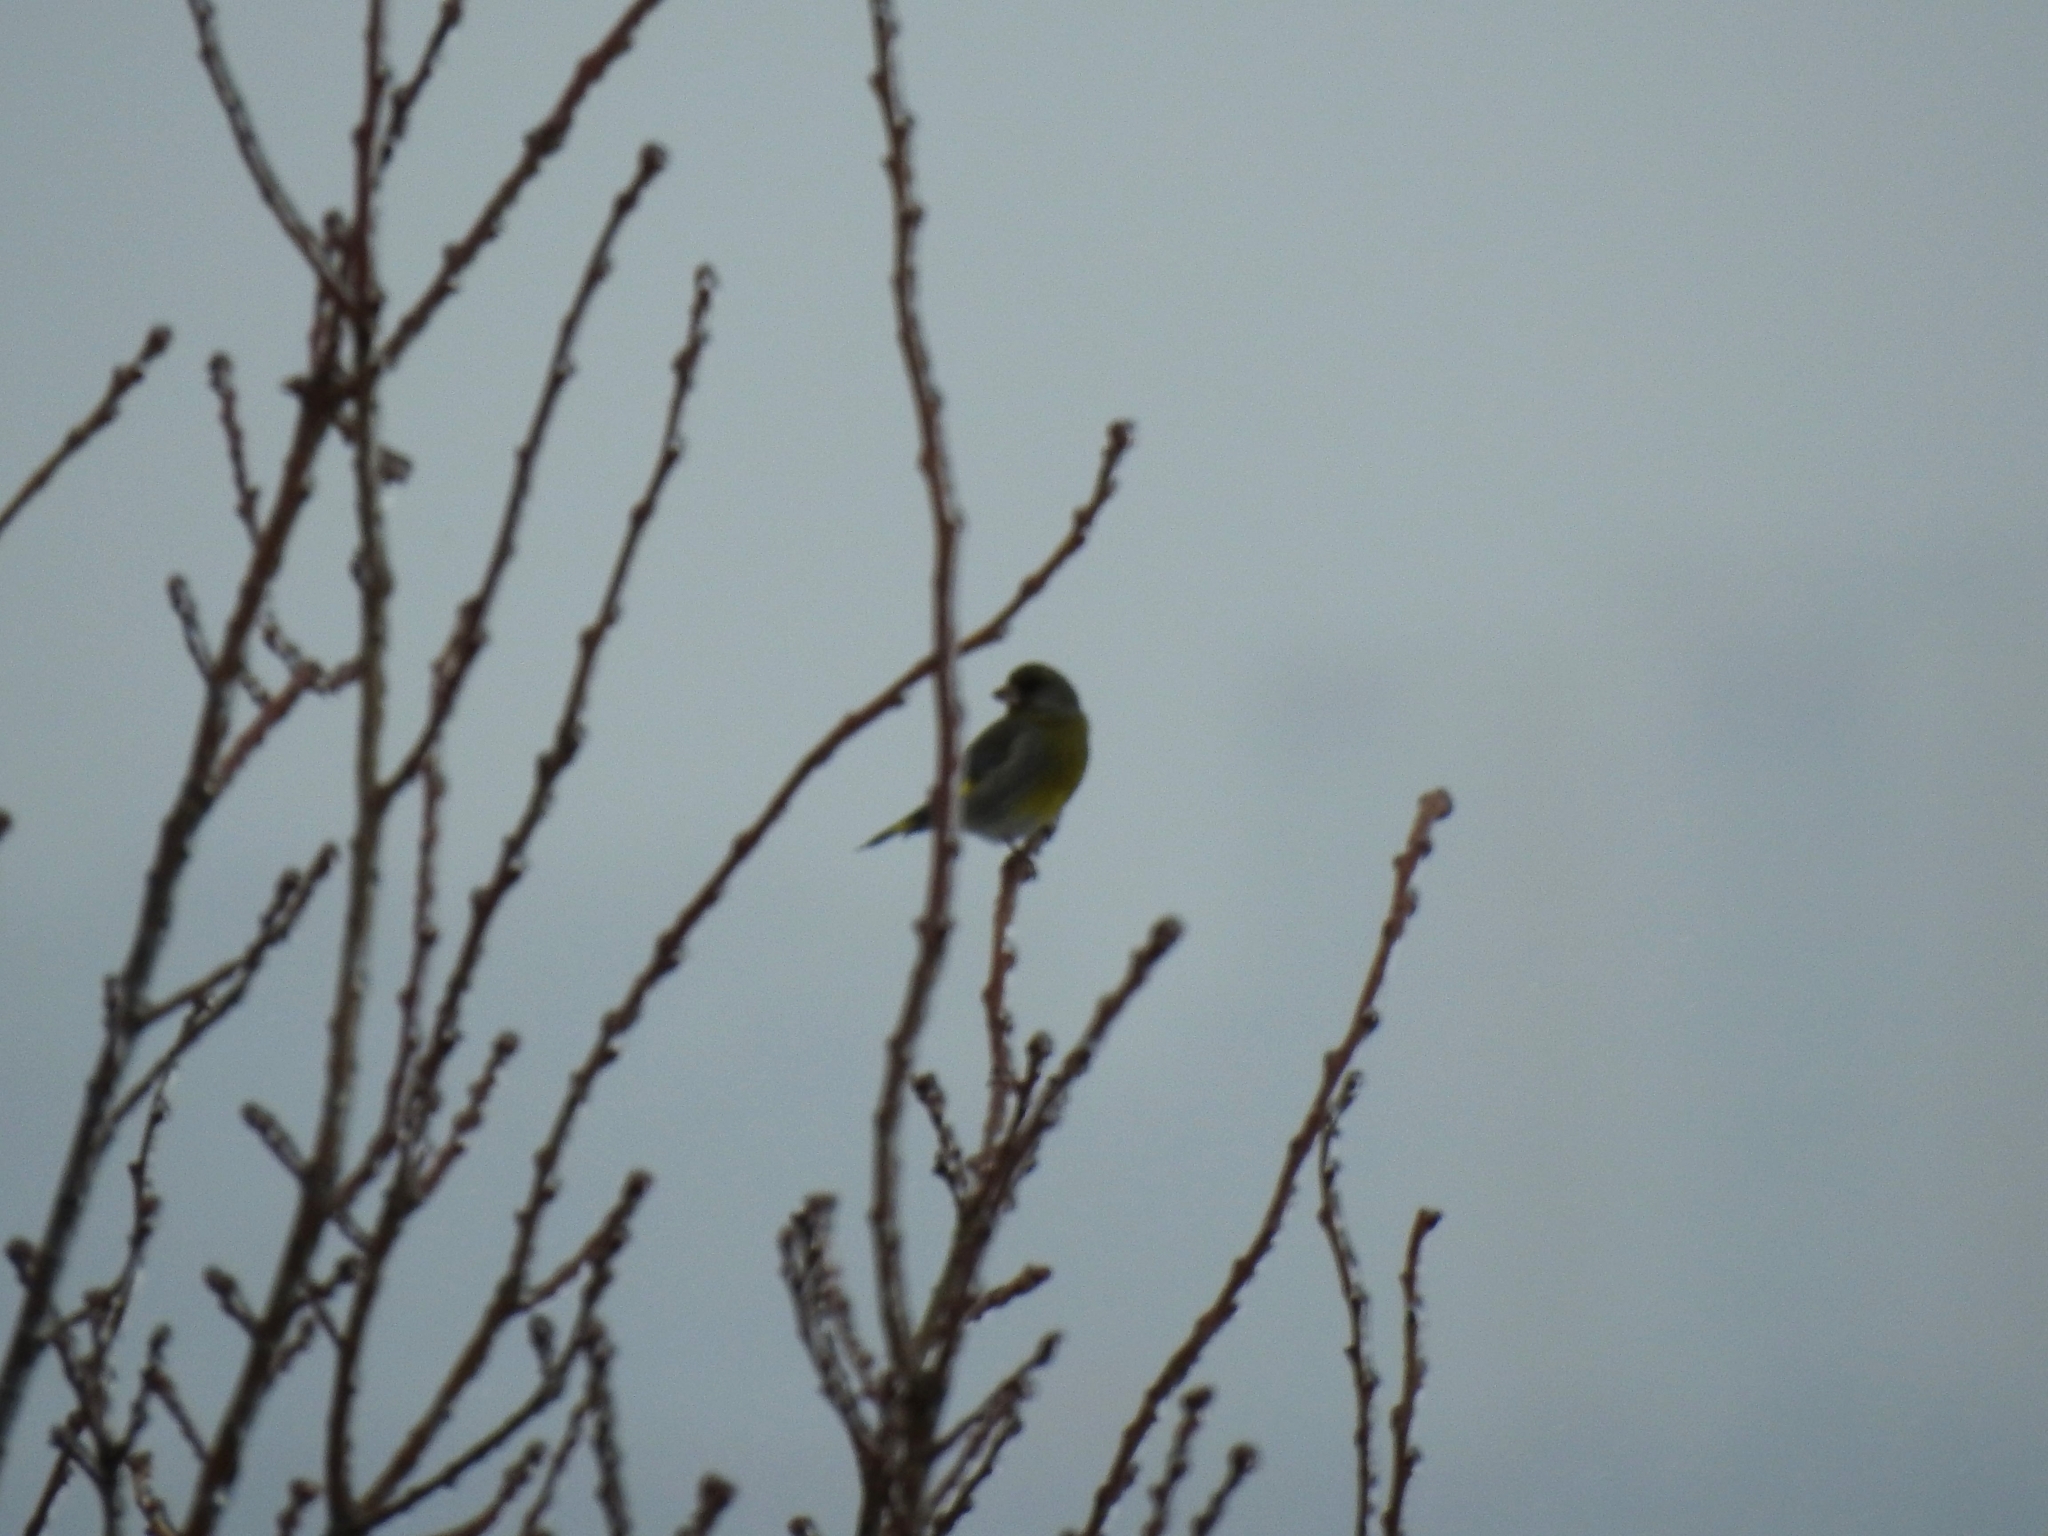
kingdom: Plantae
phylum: Tracheophyta
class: Liliopsida
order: Poales
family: Poaceae
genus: Chloris
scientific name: Chloris chloris
